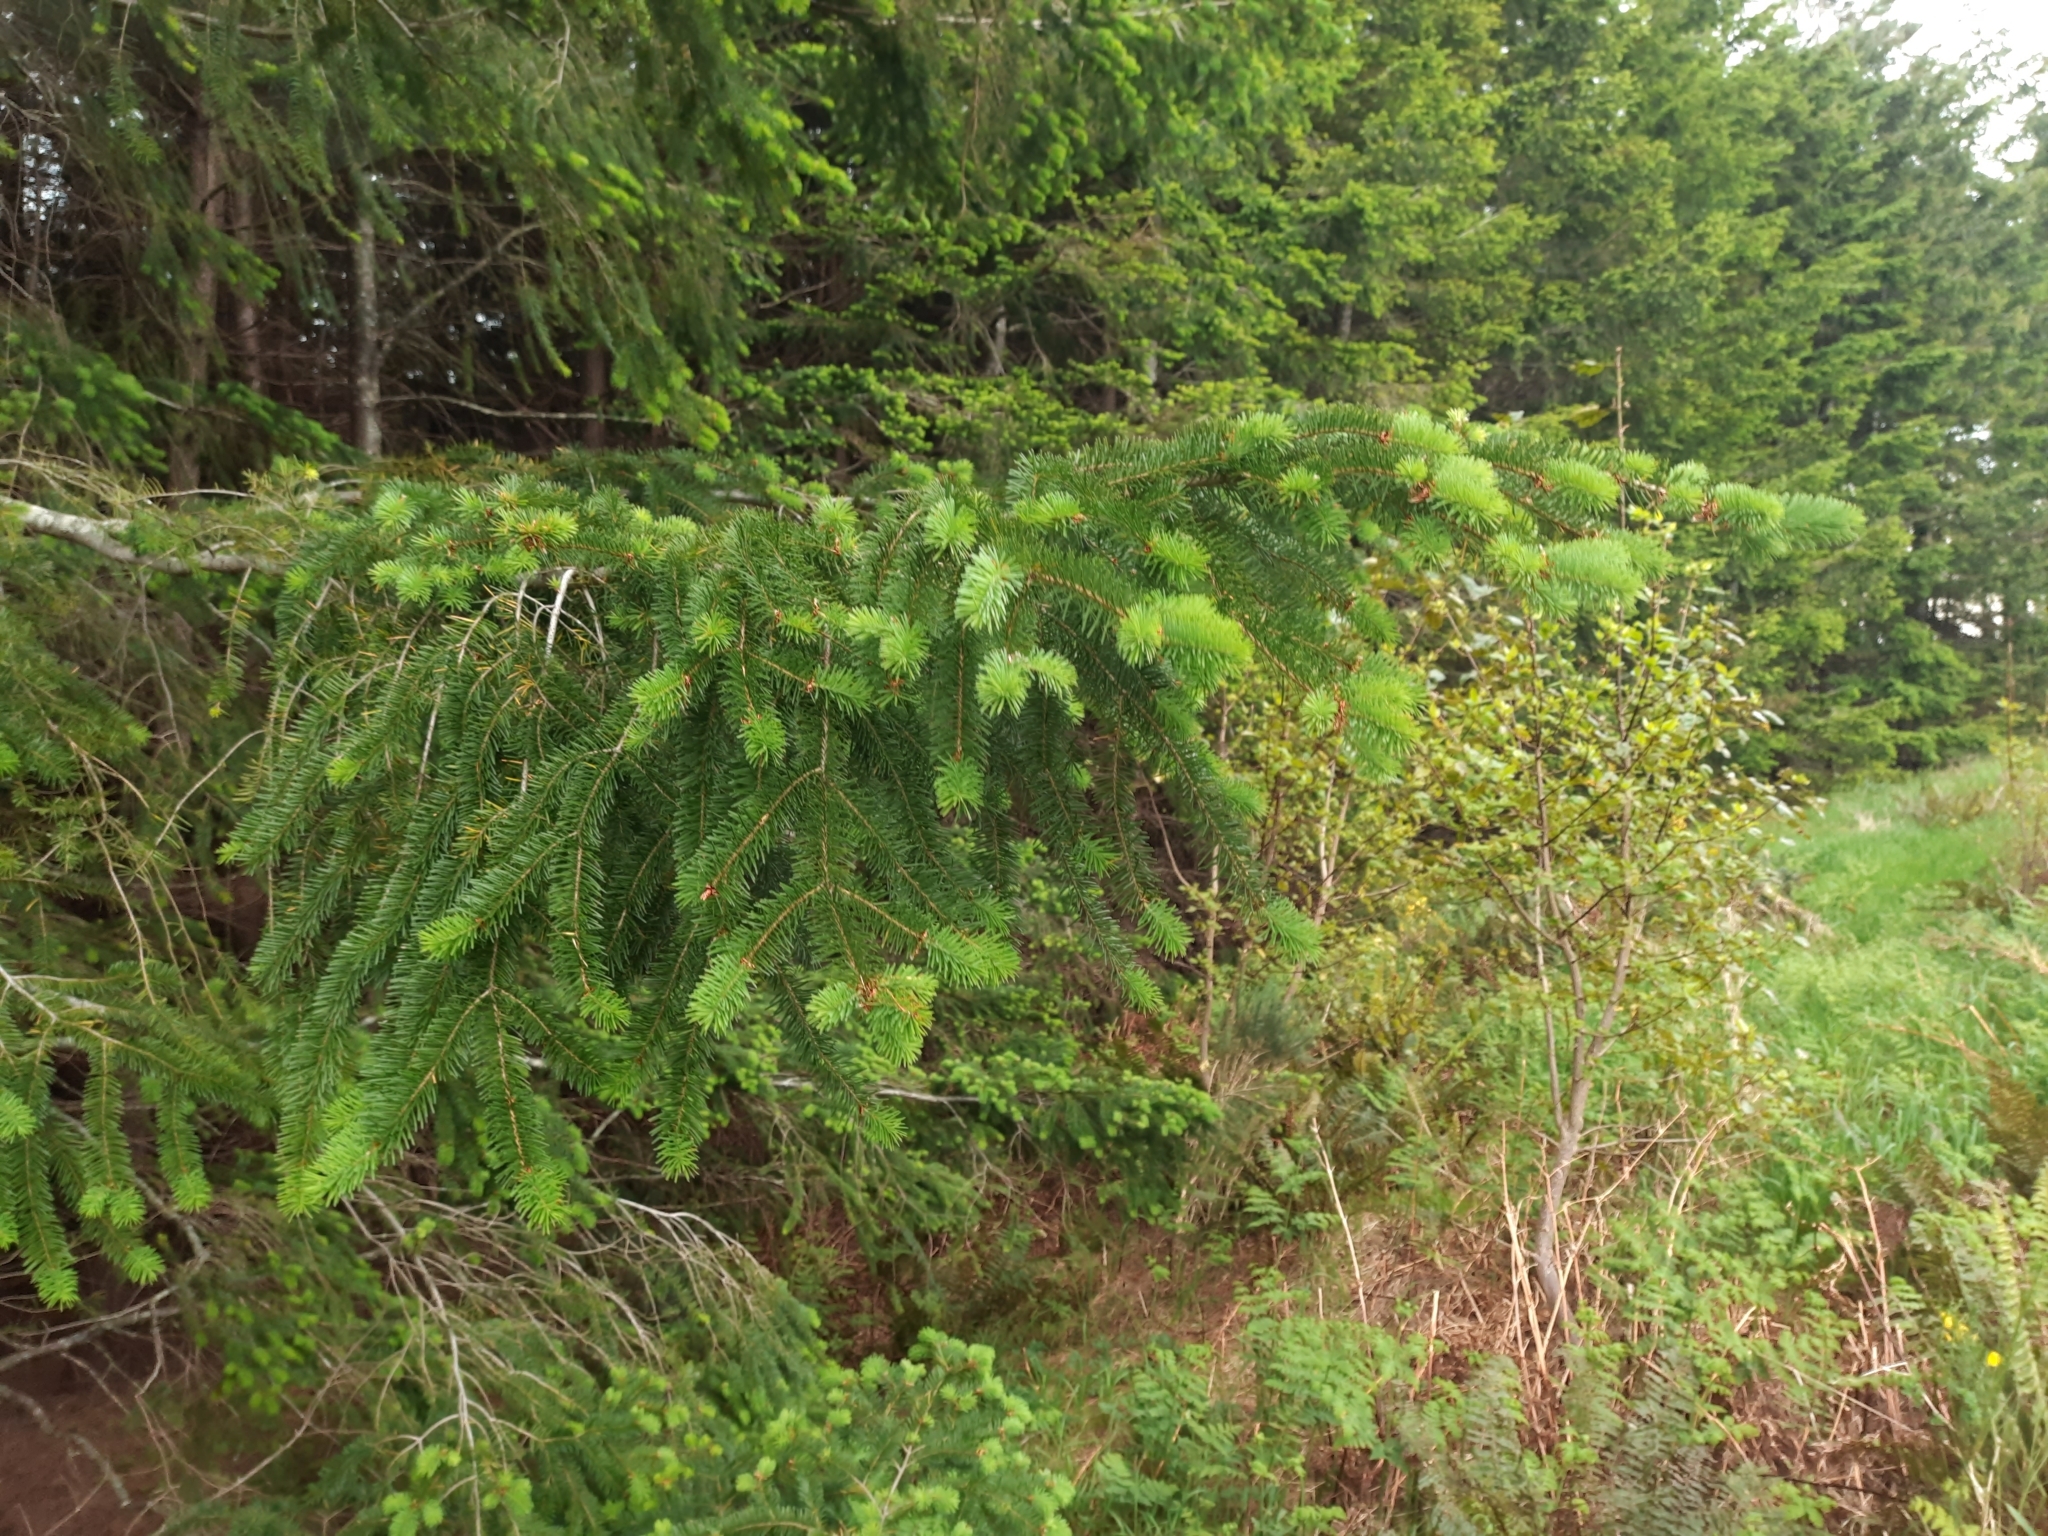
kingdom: Plantae
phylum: Tracheophyta
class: Pinopsida
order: Pinales
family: Pinaceae
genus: Pseudotsuga
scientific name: Pseudotsuga menziesii
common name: Douglas fir
